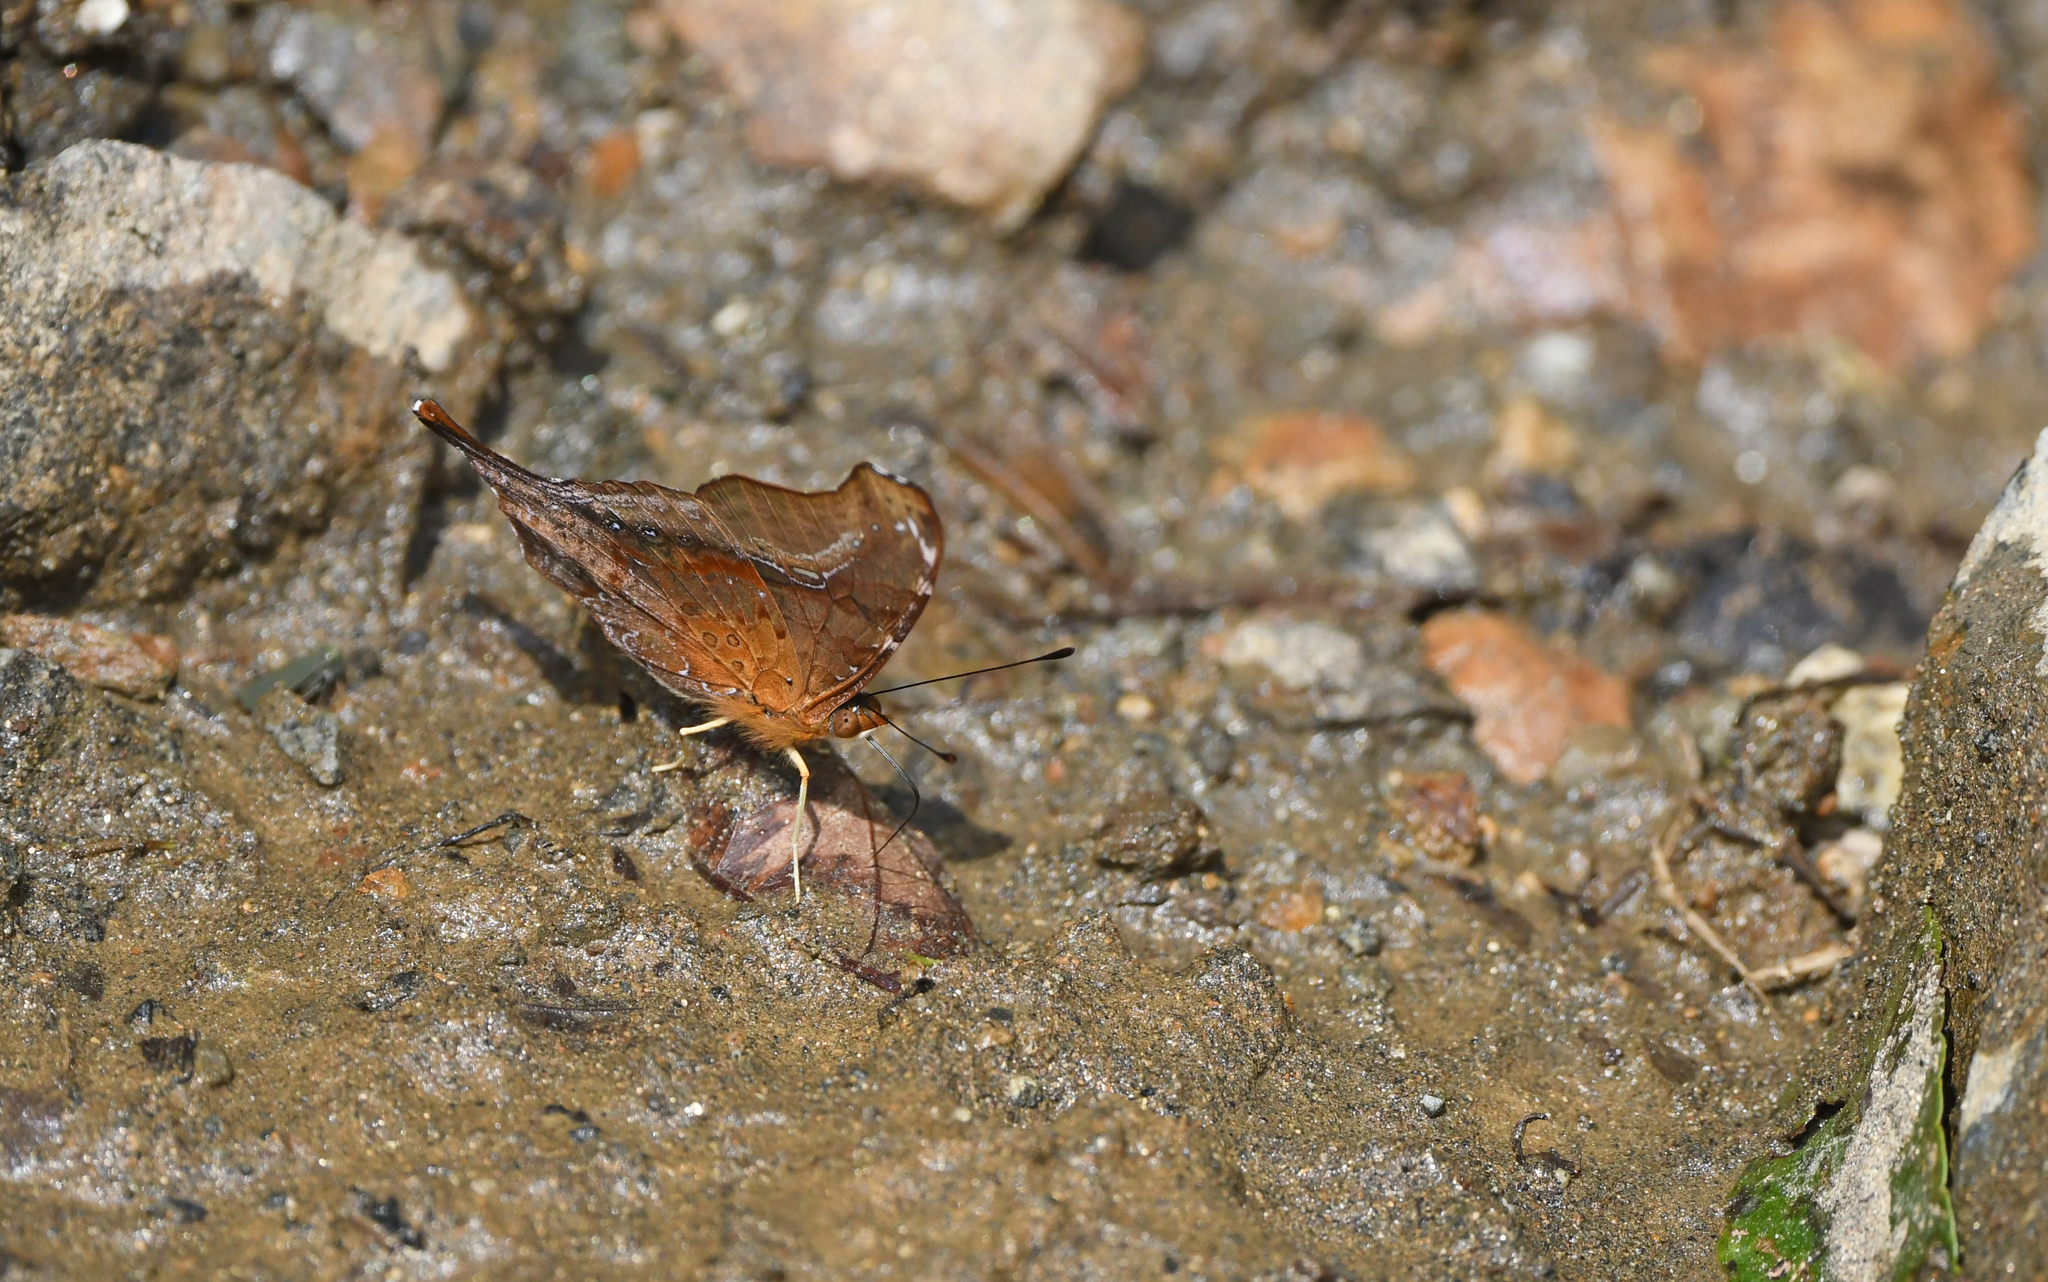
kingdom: Animalia
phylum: Arthropoda
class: Insecta
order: Lepidoptera
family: Nymphalidae
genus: Hypanartia
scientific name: Hypanartia dione
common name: Banded mapwing
